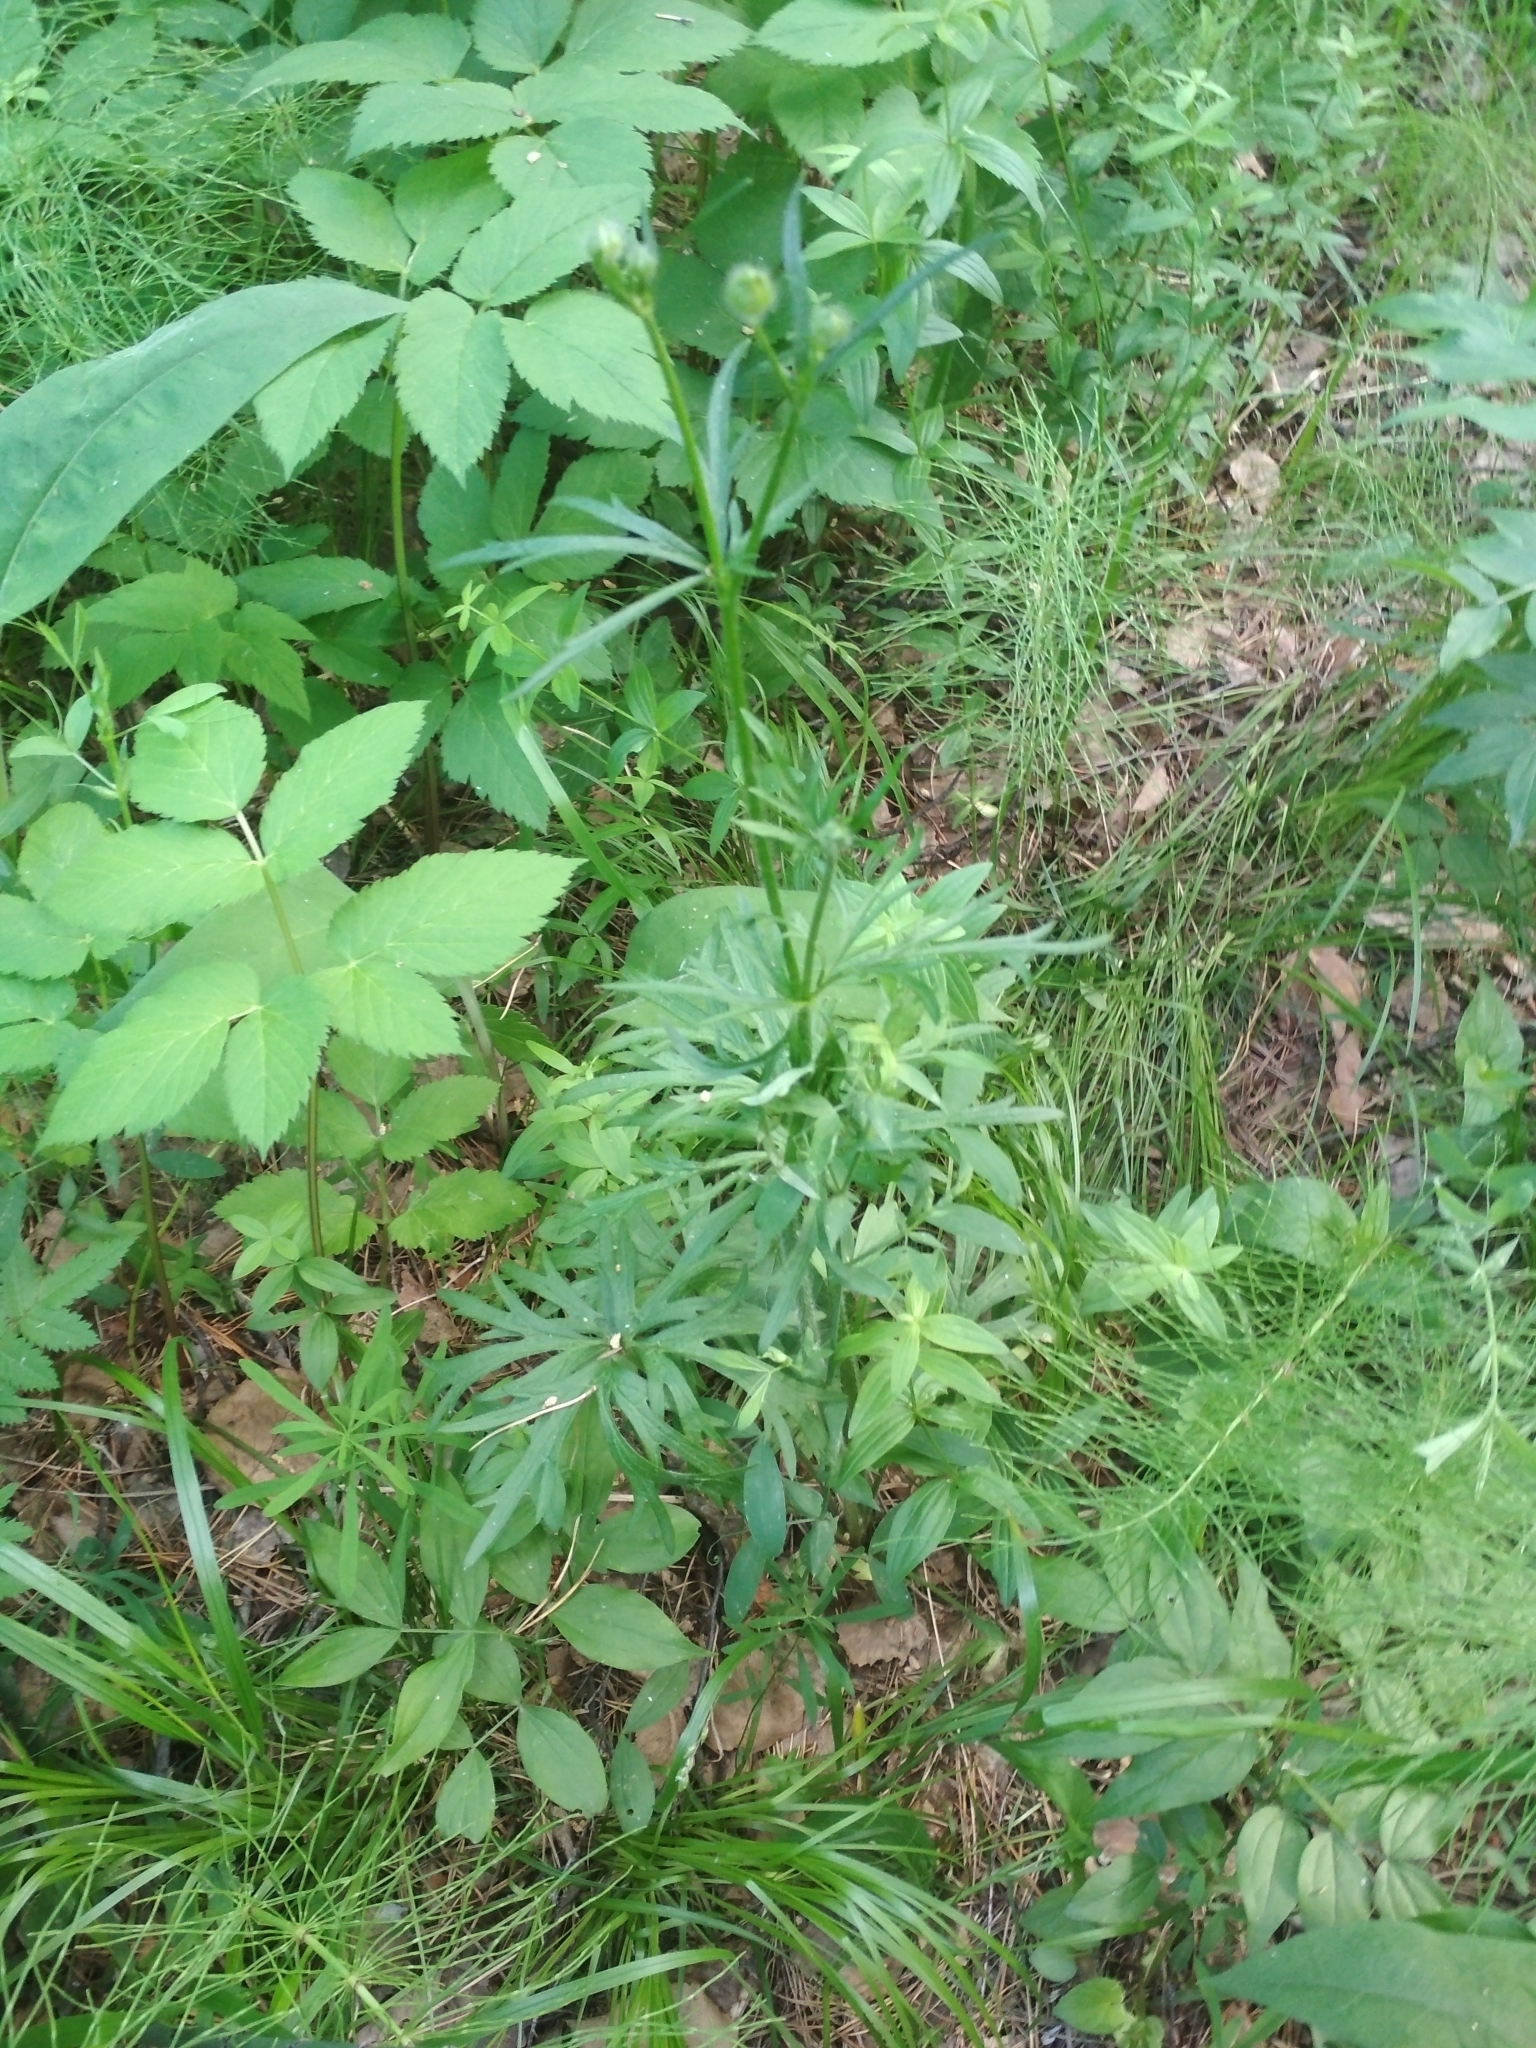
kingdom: Plantae
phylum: Tracheophyta
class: Magnoliopsida
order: Ranunculales
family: Ranunculaceae
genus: Ranunculus
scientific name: Ranunculus polyanthemos
